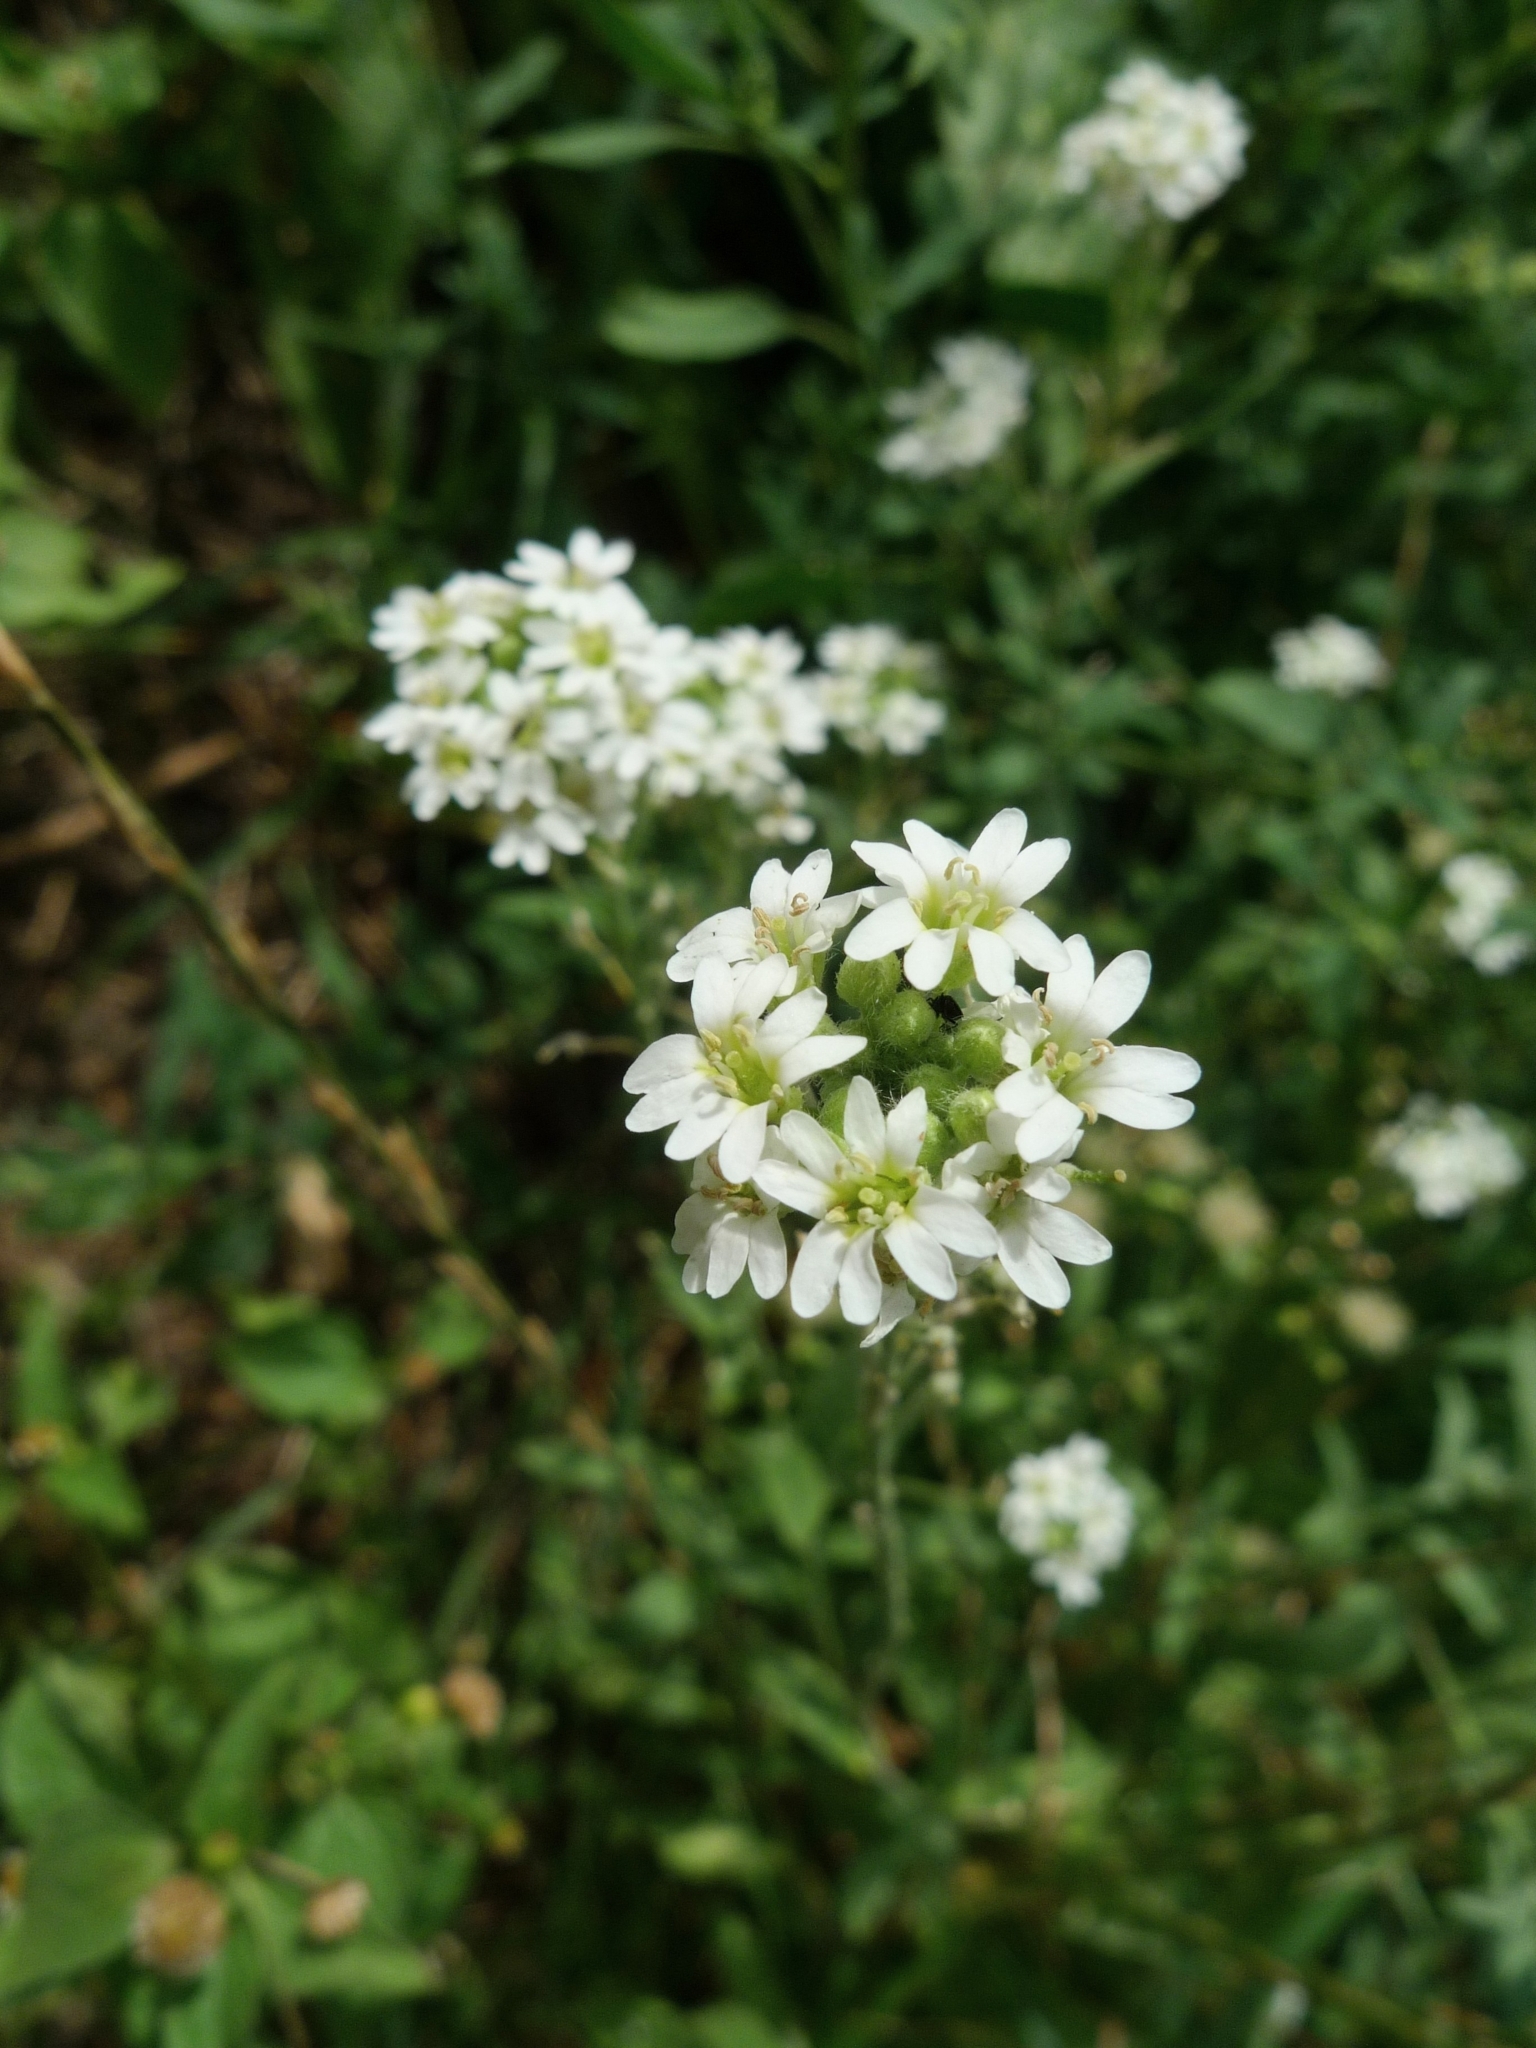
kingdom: Plantae
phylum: Tracheophyta
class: Magnoliopsida
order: Brassicales
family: Brassicaceae
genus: Berteroa
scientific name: Berteroa incana
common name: Hoary alison
